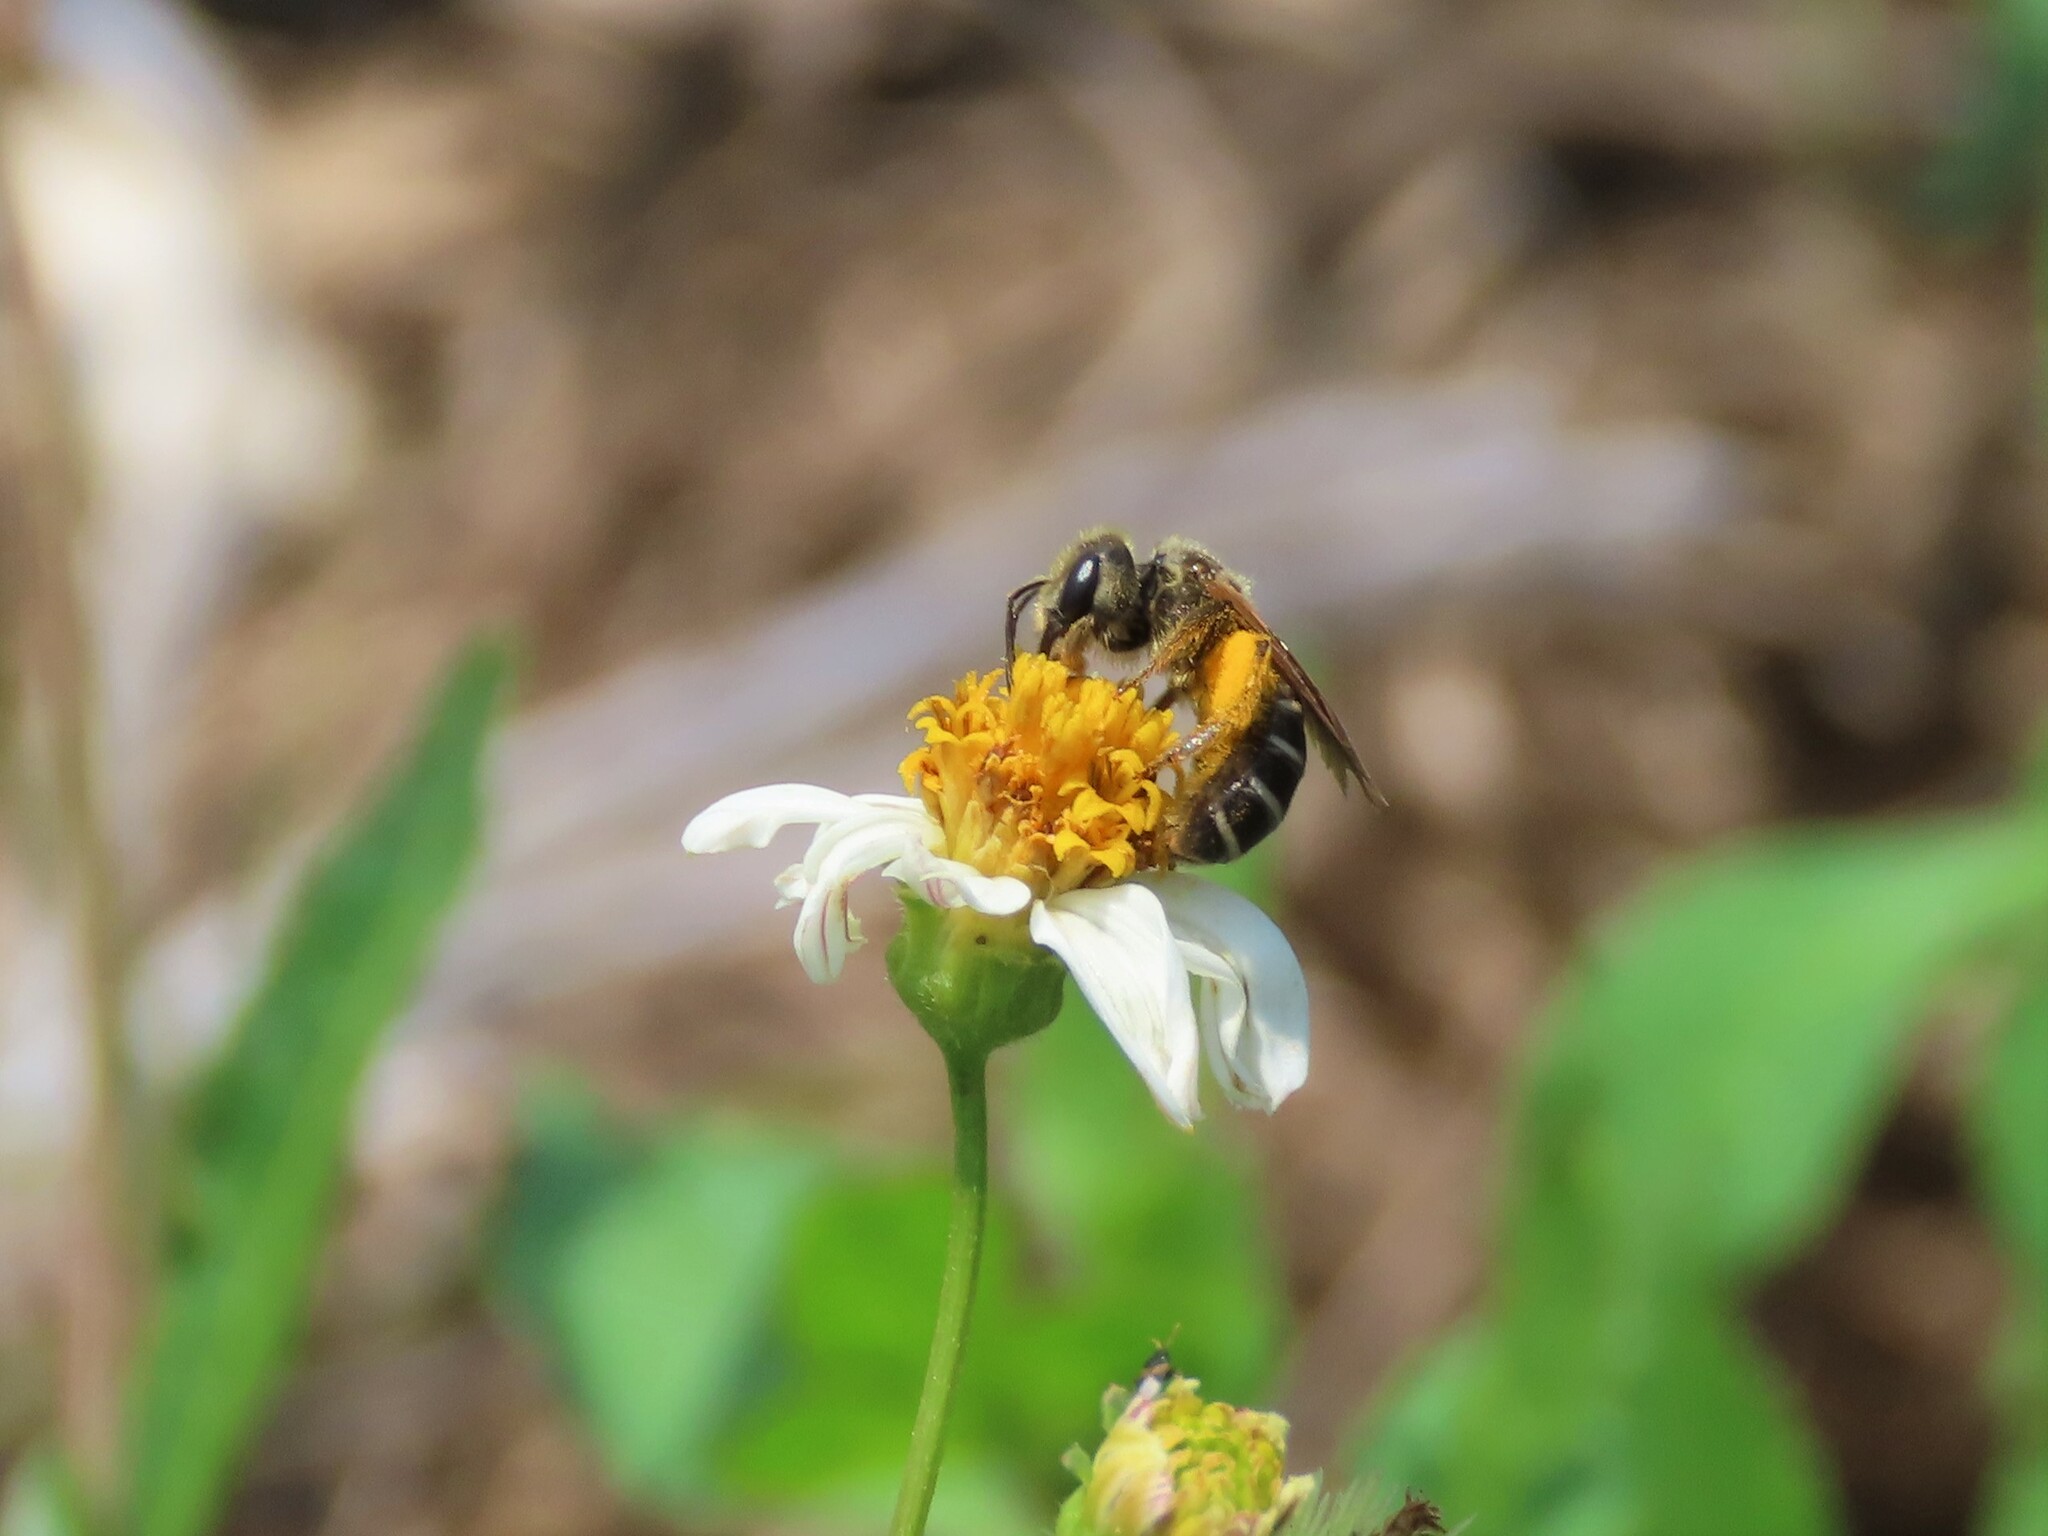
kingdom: Animalia
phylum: Arthropoda
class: Insecta
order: Hymenoptera
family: Halictidae
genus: Halictus
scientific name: Halictus poeyi
